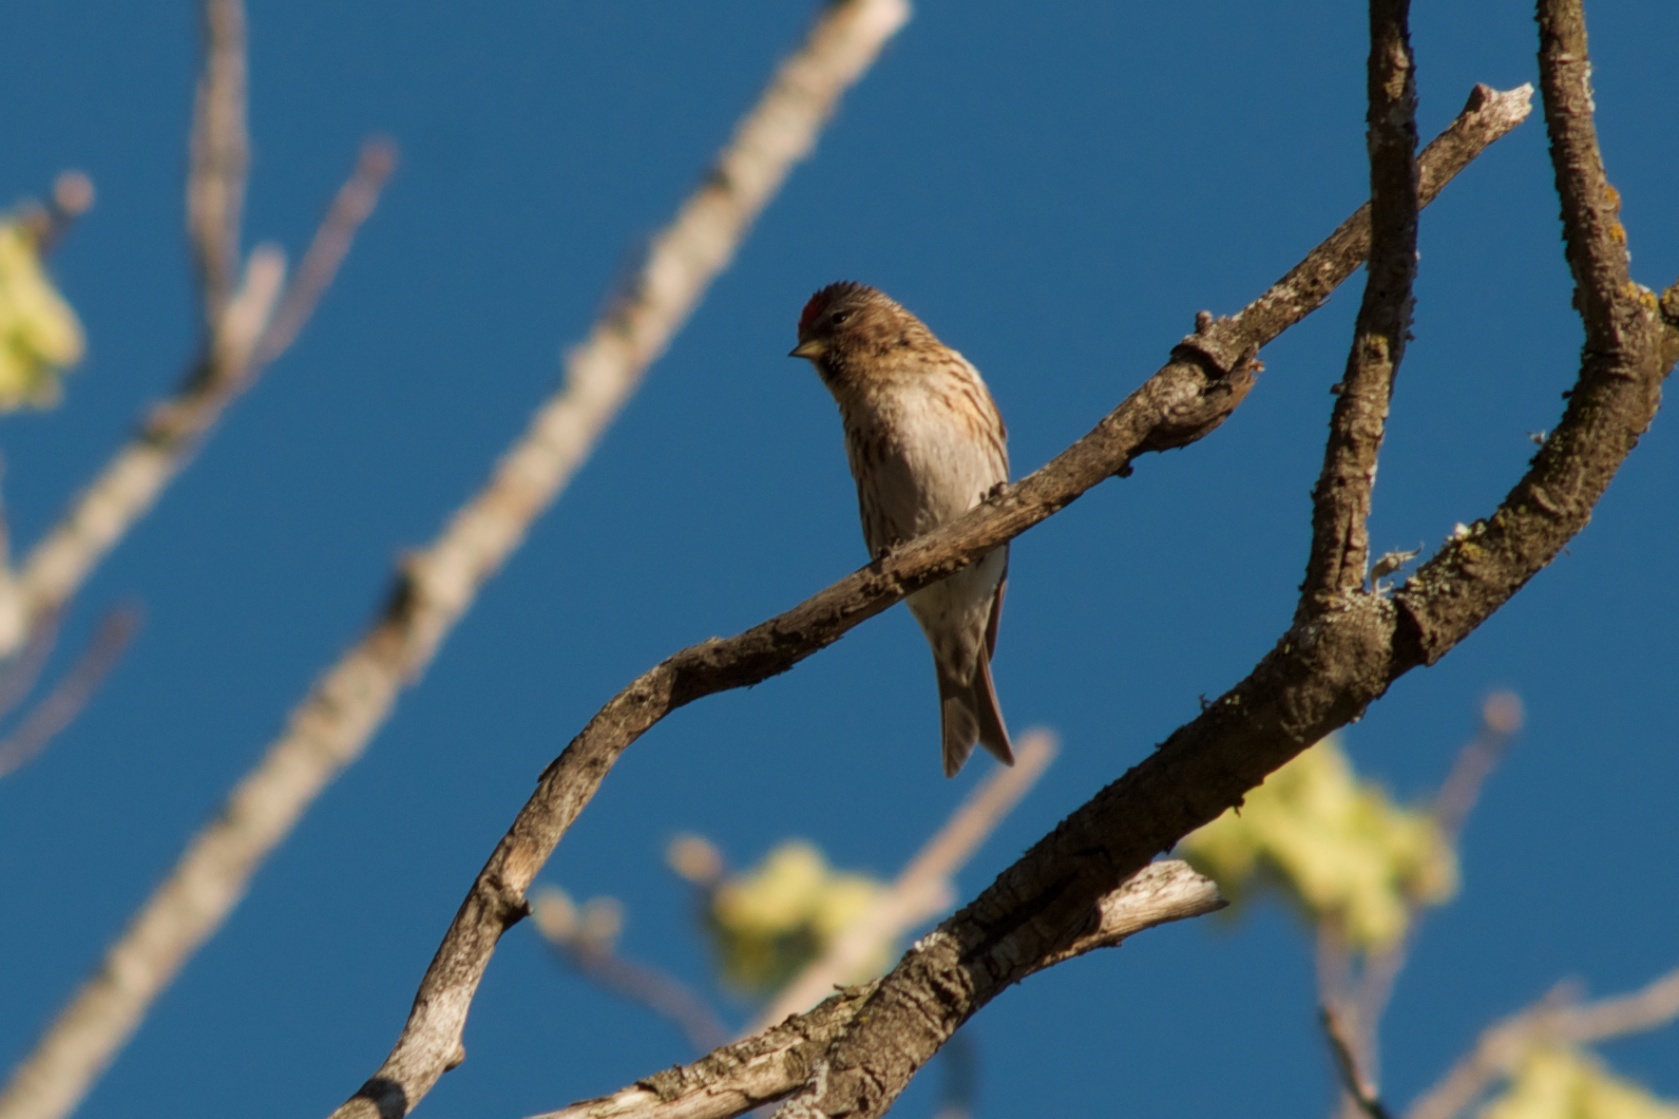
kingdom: Animalia
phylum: Chordata
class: Aves
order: Passeriformes
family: Fringillidae
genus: Acanthis
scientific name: Acanthis flammea
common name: Common redpoll
